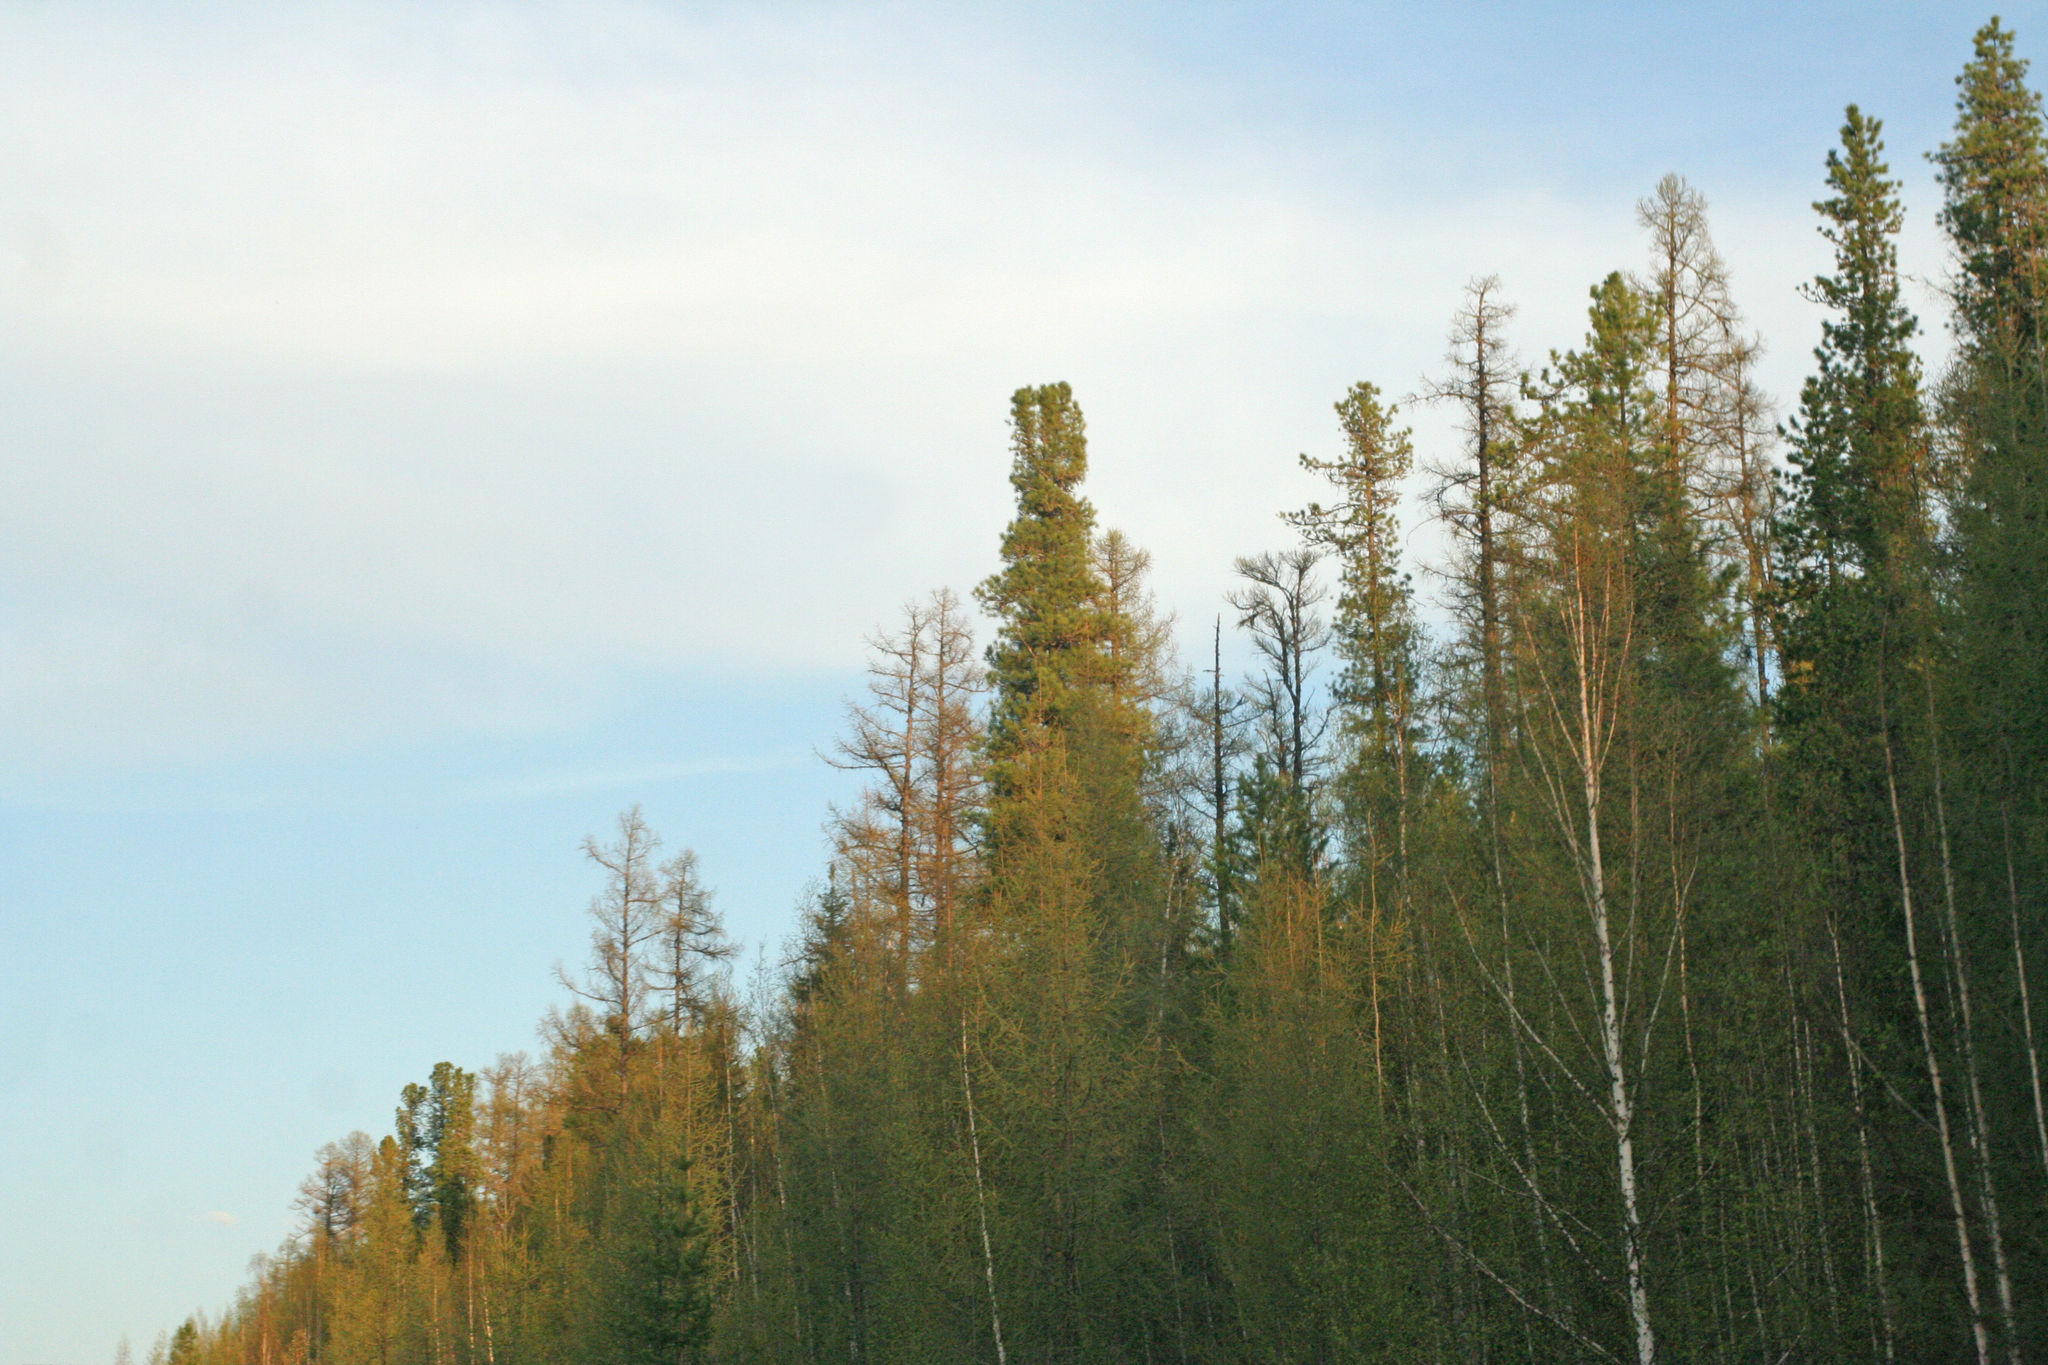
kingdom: Plantae
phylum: Tracheophyta
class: Pinopsida
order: Pinales
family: Pinaceae
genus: Larix
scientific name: Larix sibirica
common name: Siberian larch
